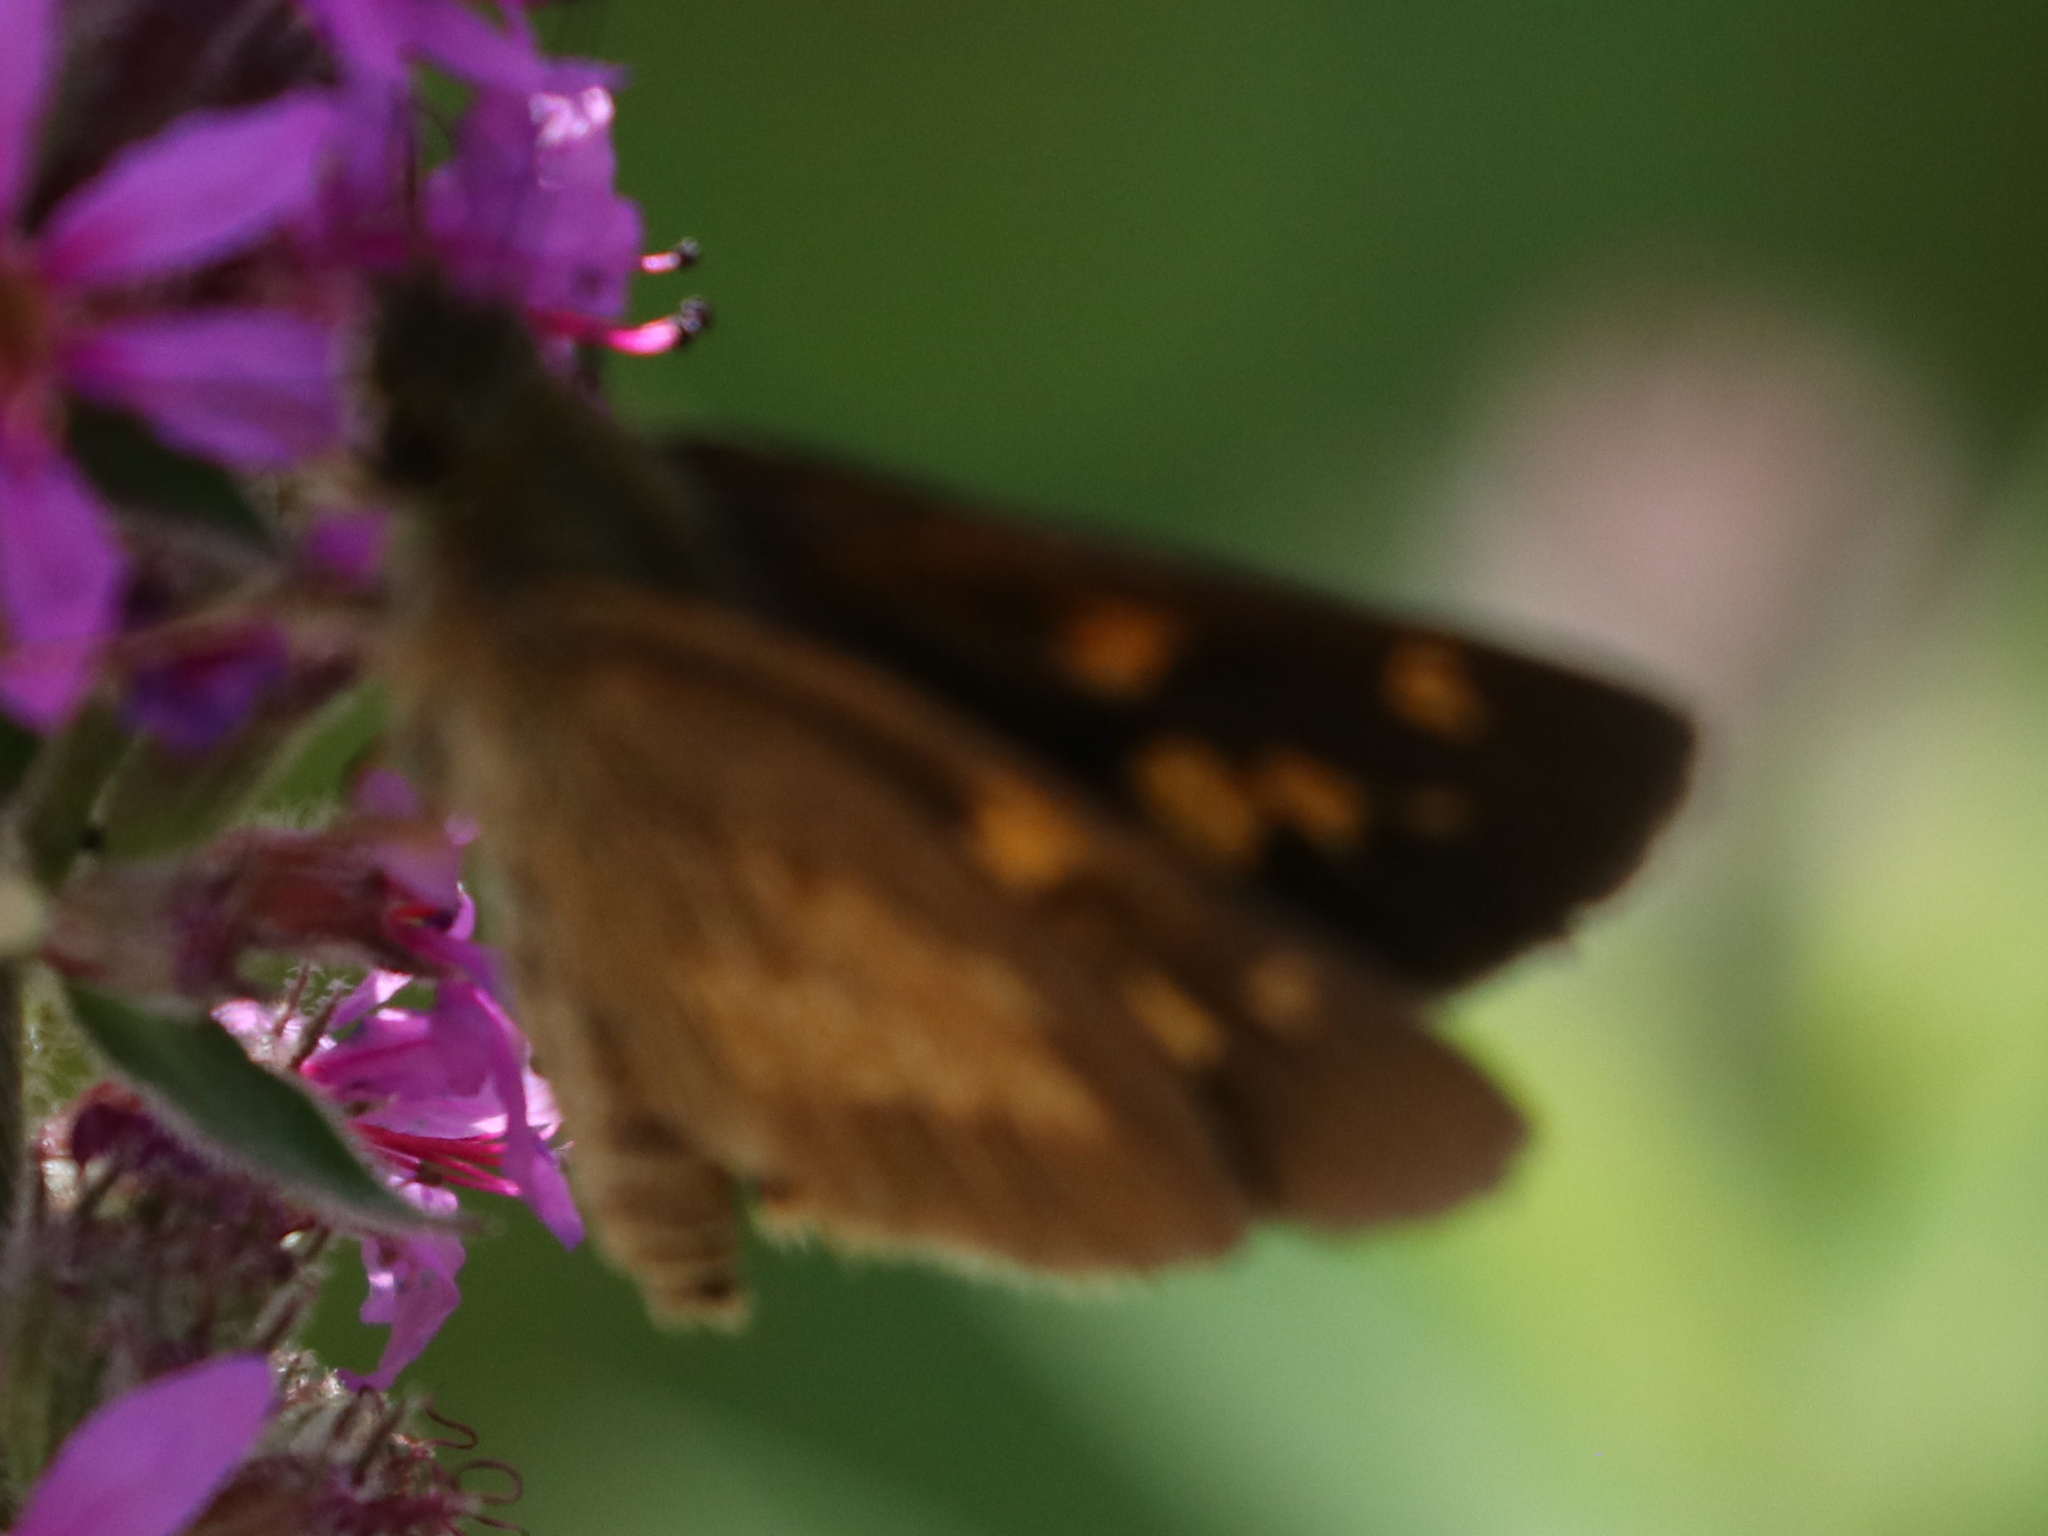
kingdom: Animalia
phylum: Arthropoda
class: Insecta
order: Lepidoptera
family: Hesperiidae
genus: Poanes
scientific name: Poanes viator
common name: Broad-winged skipper
